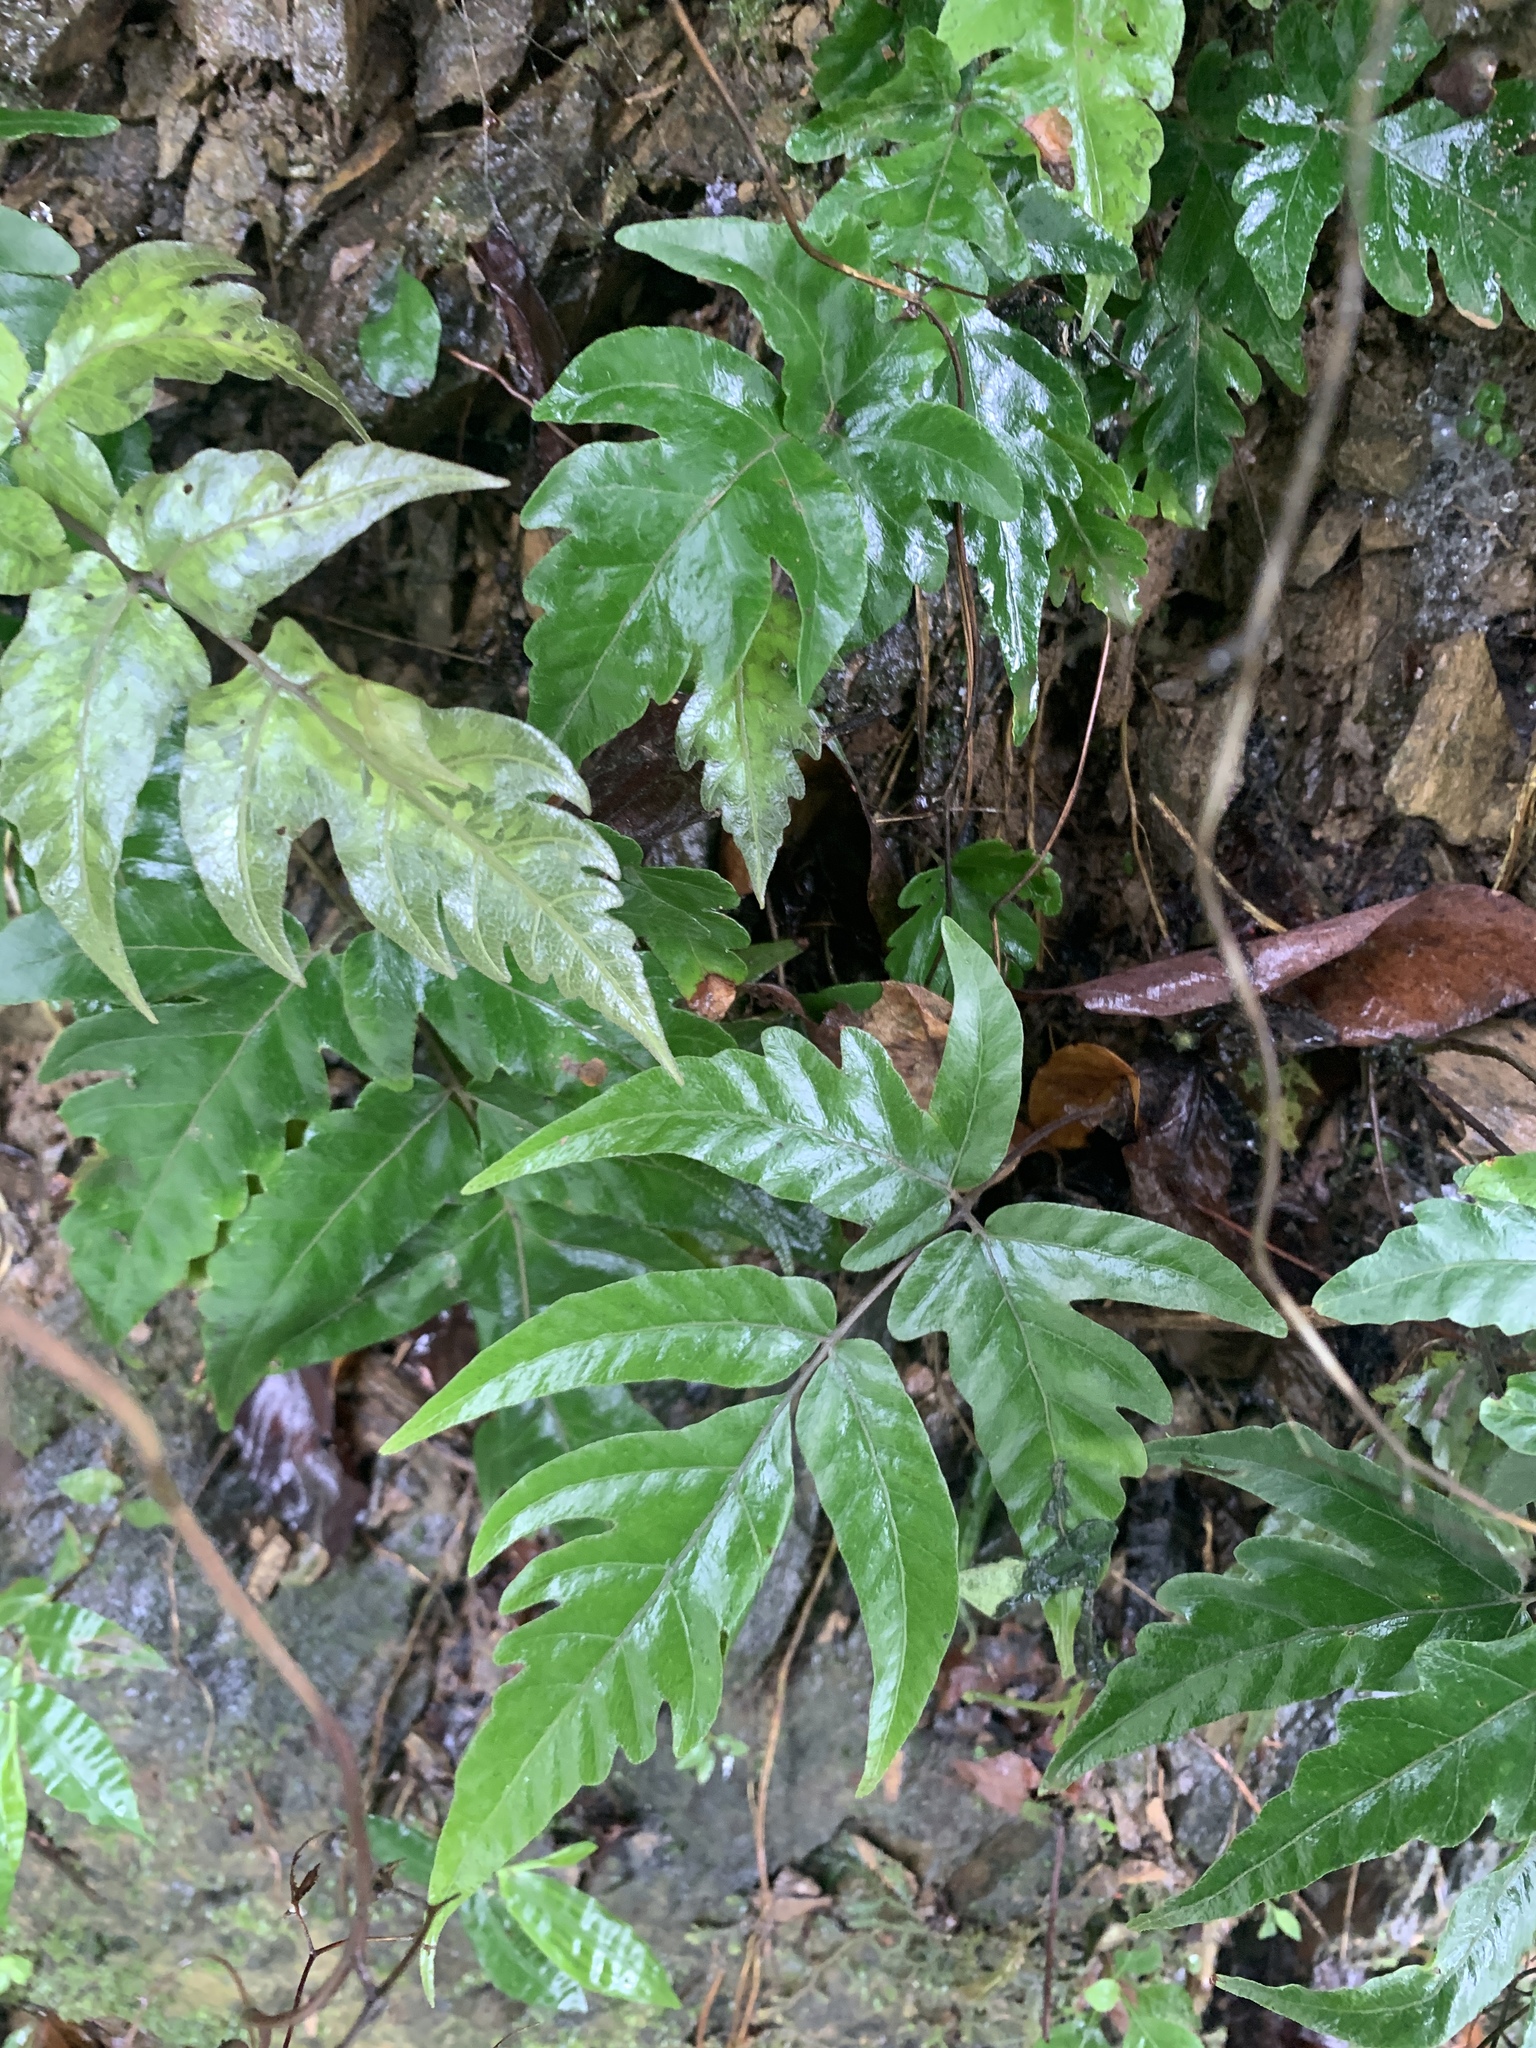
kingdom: Plantae
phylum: Tracheophyta
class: Polypodiopsida
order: Polypodiales
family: Tectariaceae
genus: Tectaria
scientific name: Tectaria impressa
